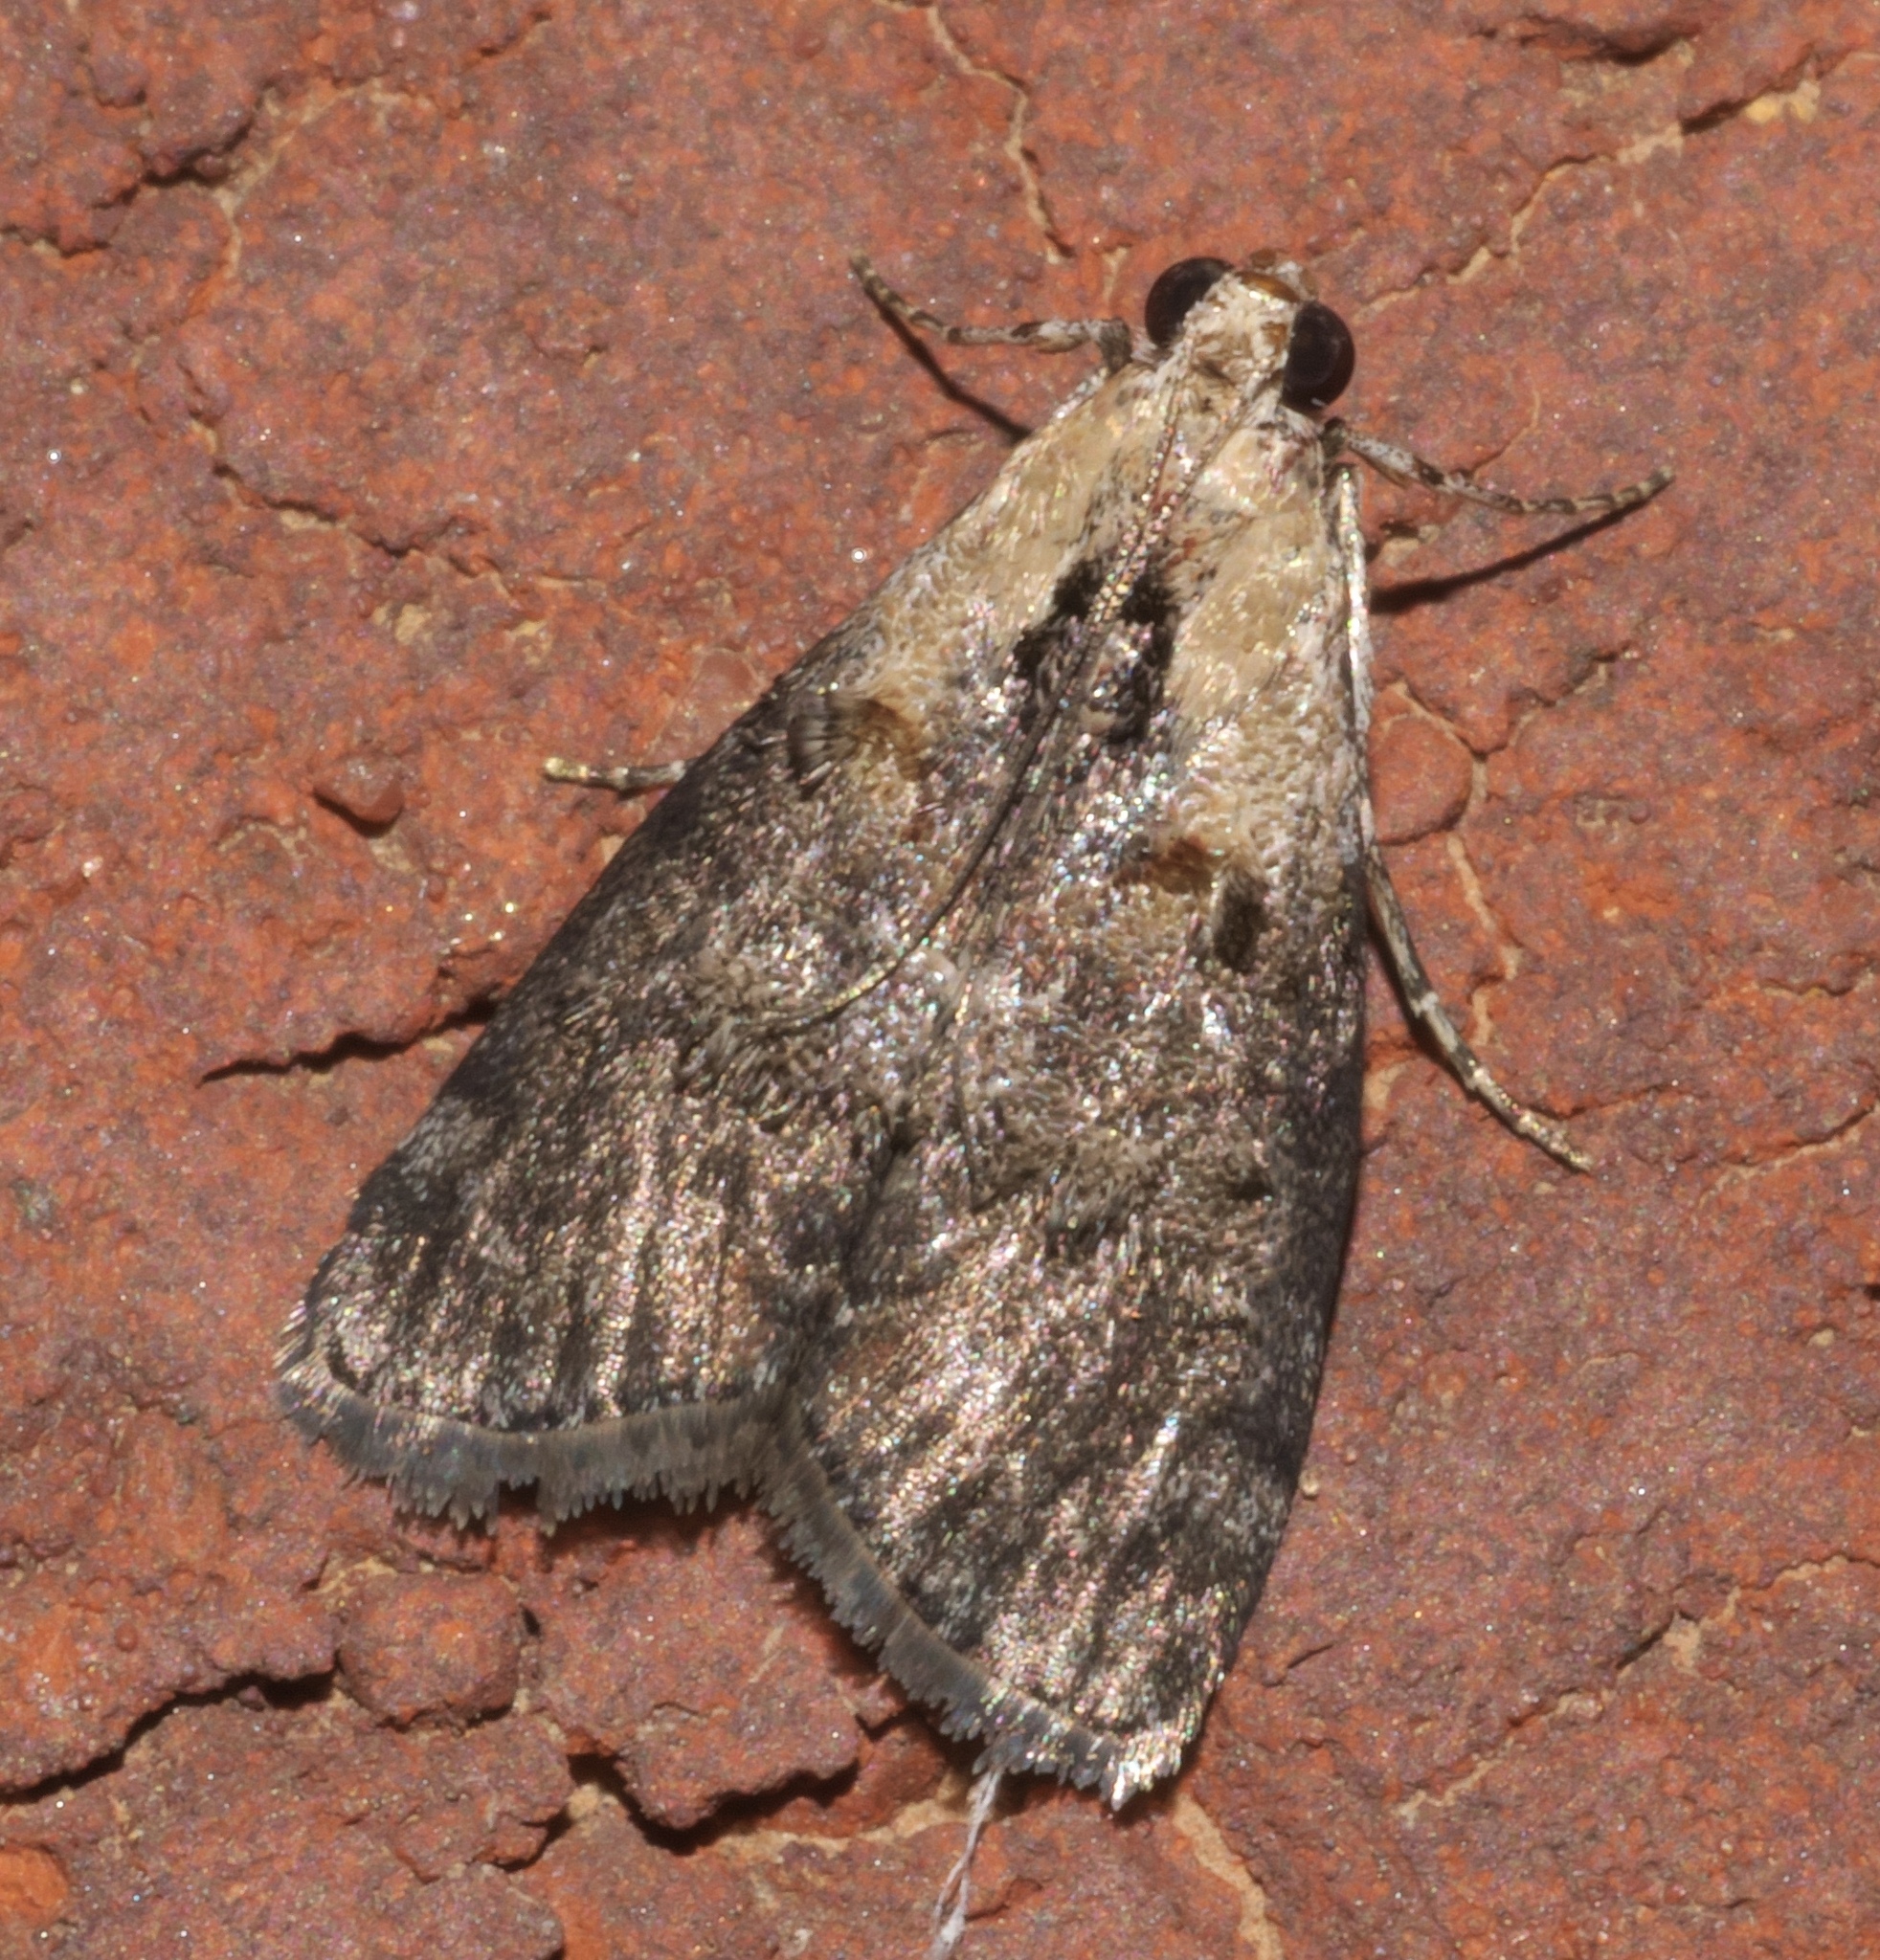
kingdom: Animalia
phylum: Arthropoda
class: Insecta
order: Lepidoptera
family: Pyralidae
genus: Pococera
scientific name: Pococera expandens
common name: Striped oak webworm moth
